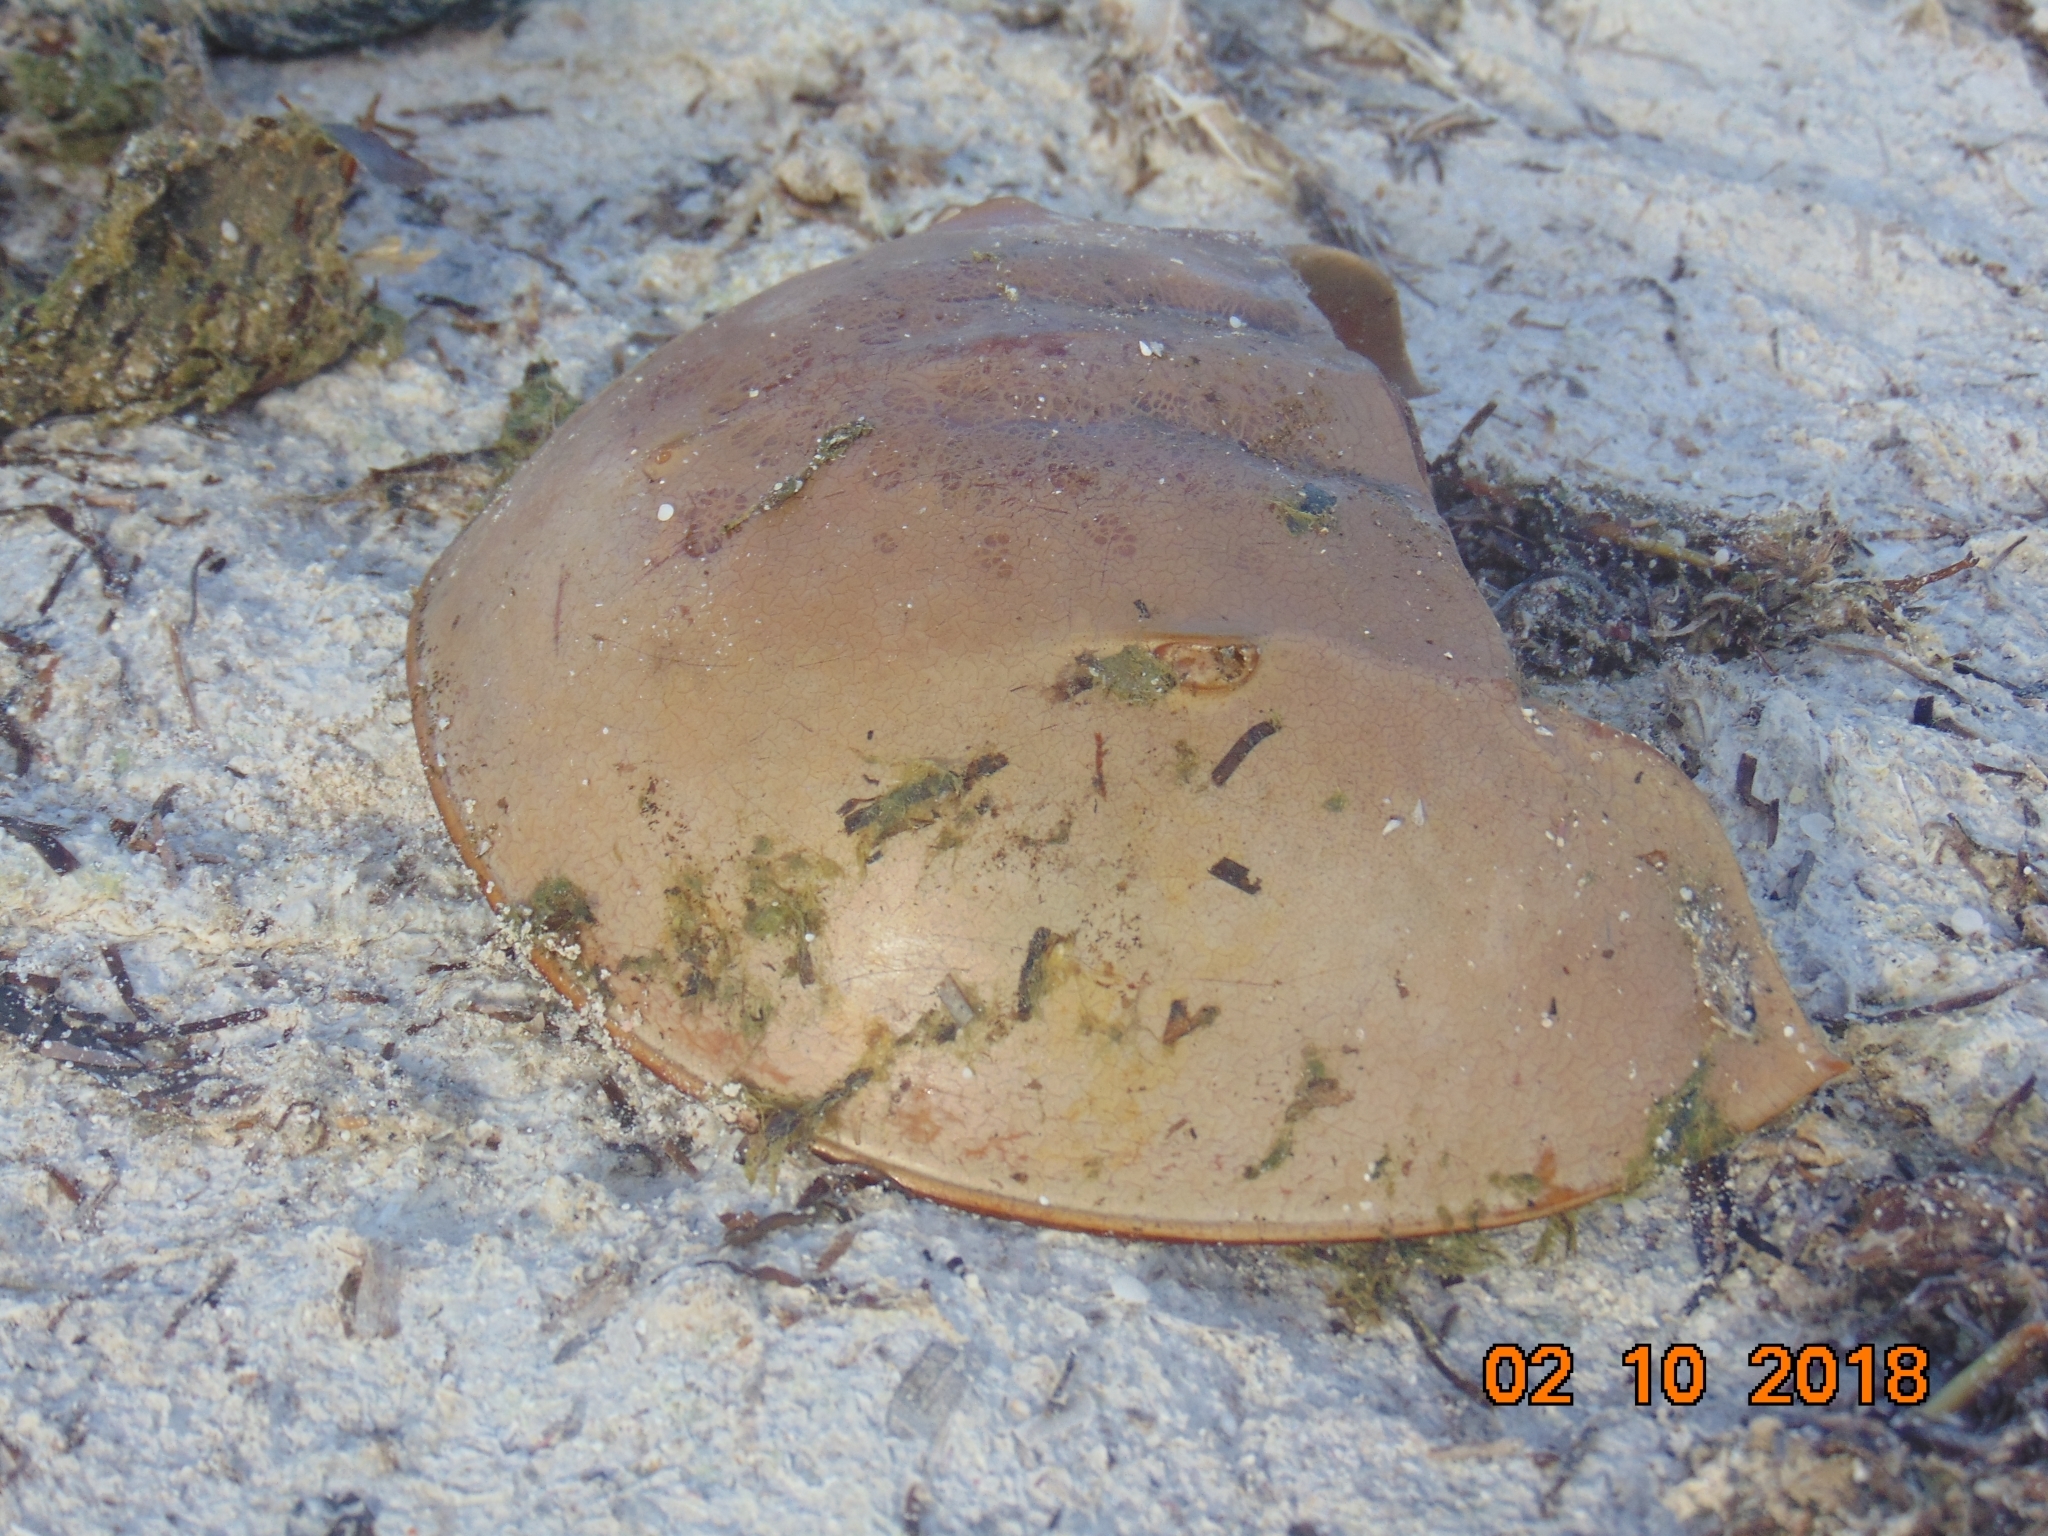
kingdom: Animalia
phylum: Arthropoda
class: Merostomata
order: Xiphosurida
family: Limulidae
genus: Limulus
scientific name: Limulus polyphemus
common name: Horseshoe crab
